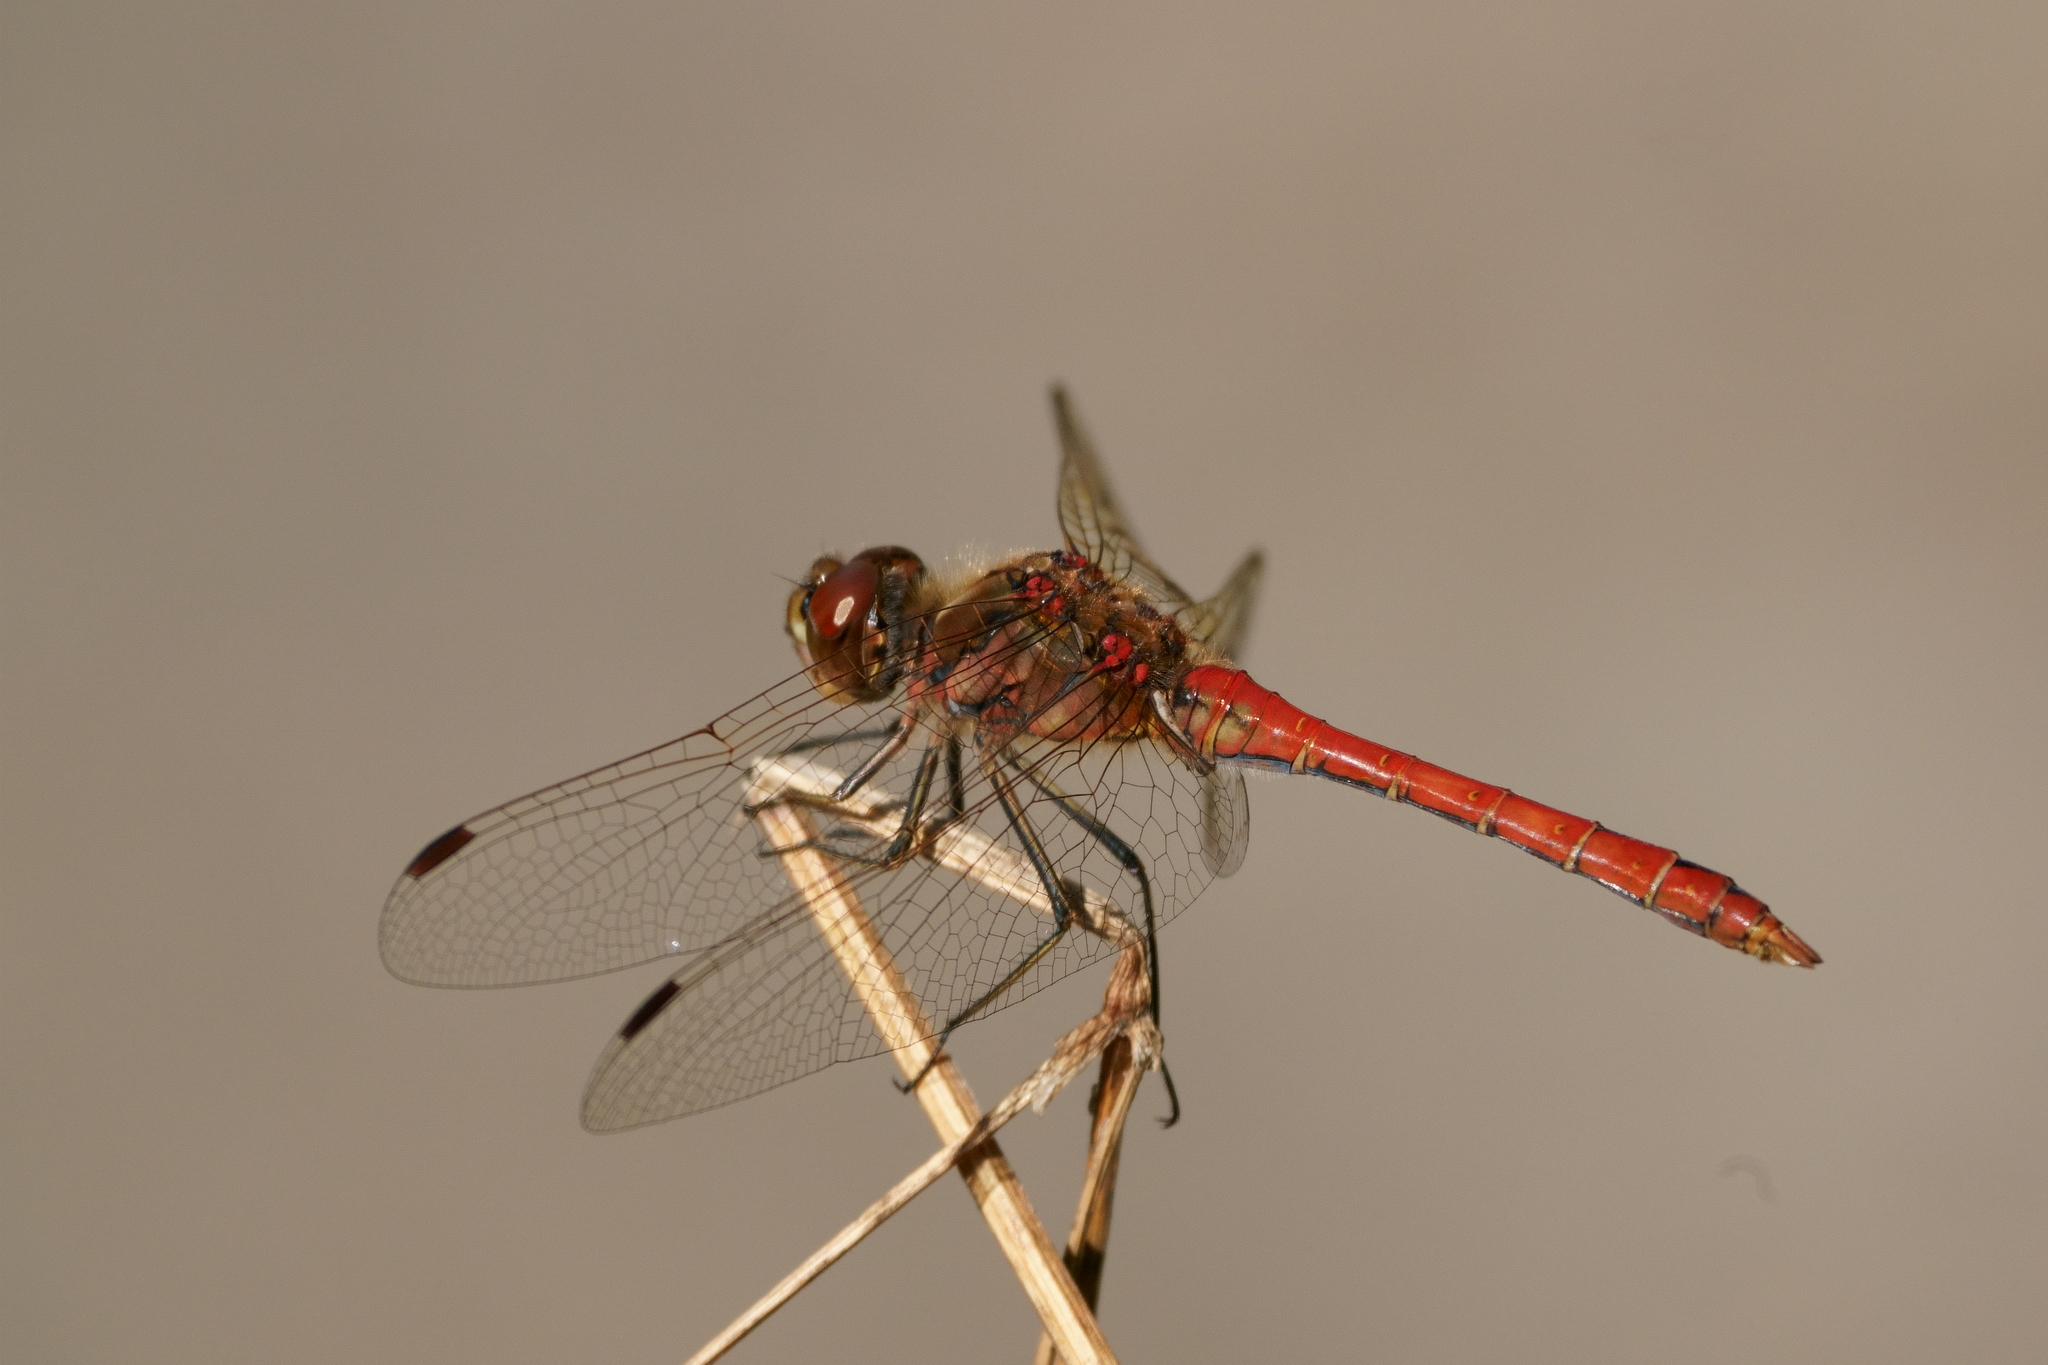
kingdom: Animalia
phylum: Arthropoda
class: Insecta
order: Odonata
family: Libellulidae
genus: Sympetrum
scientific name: Sympetrum vulgatum
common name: Vagrant darter
